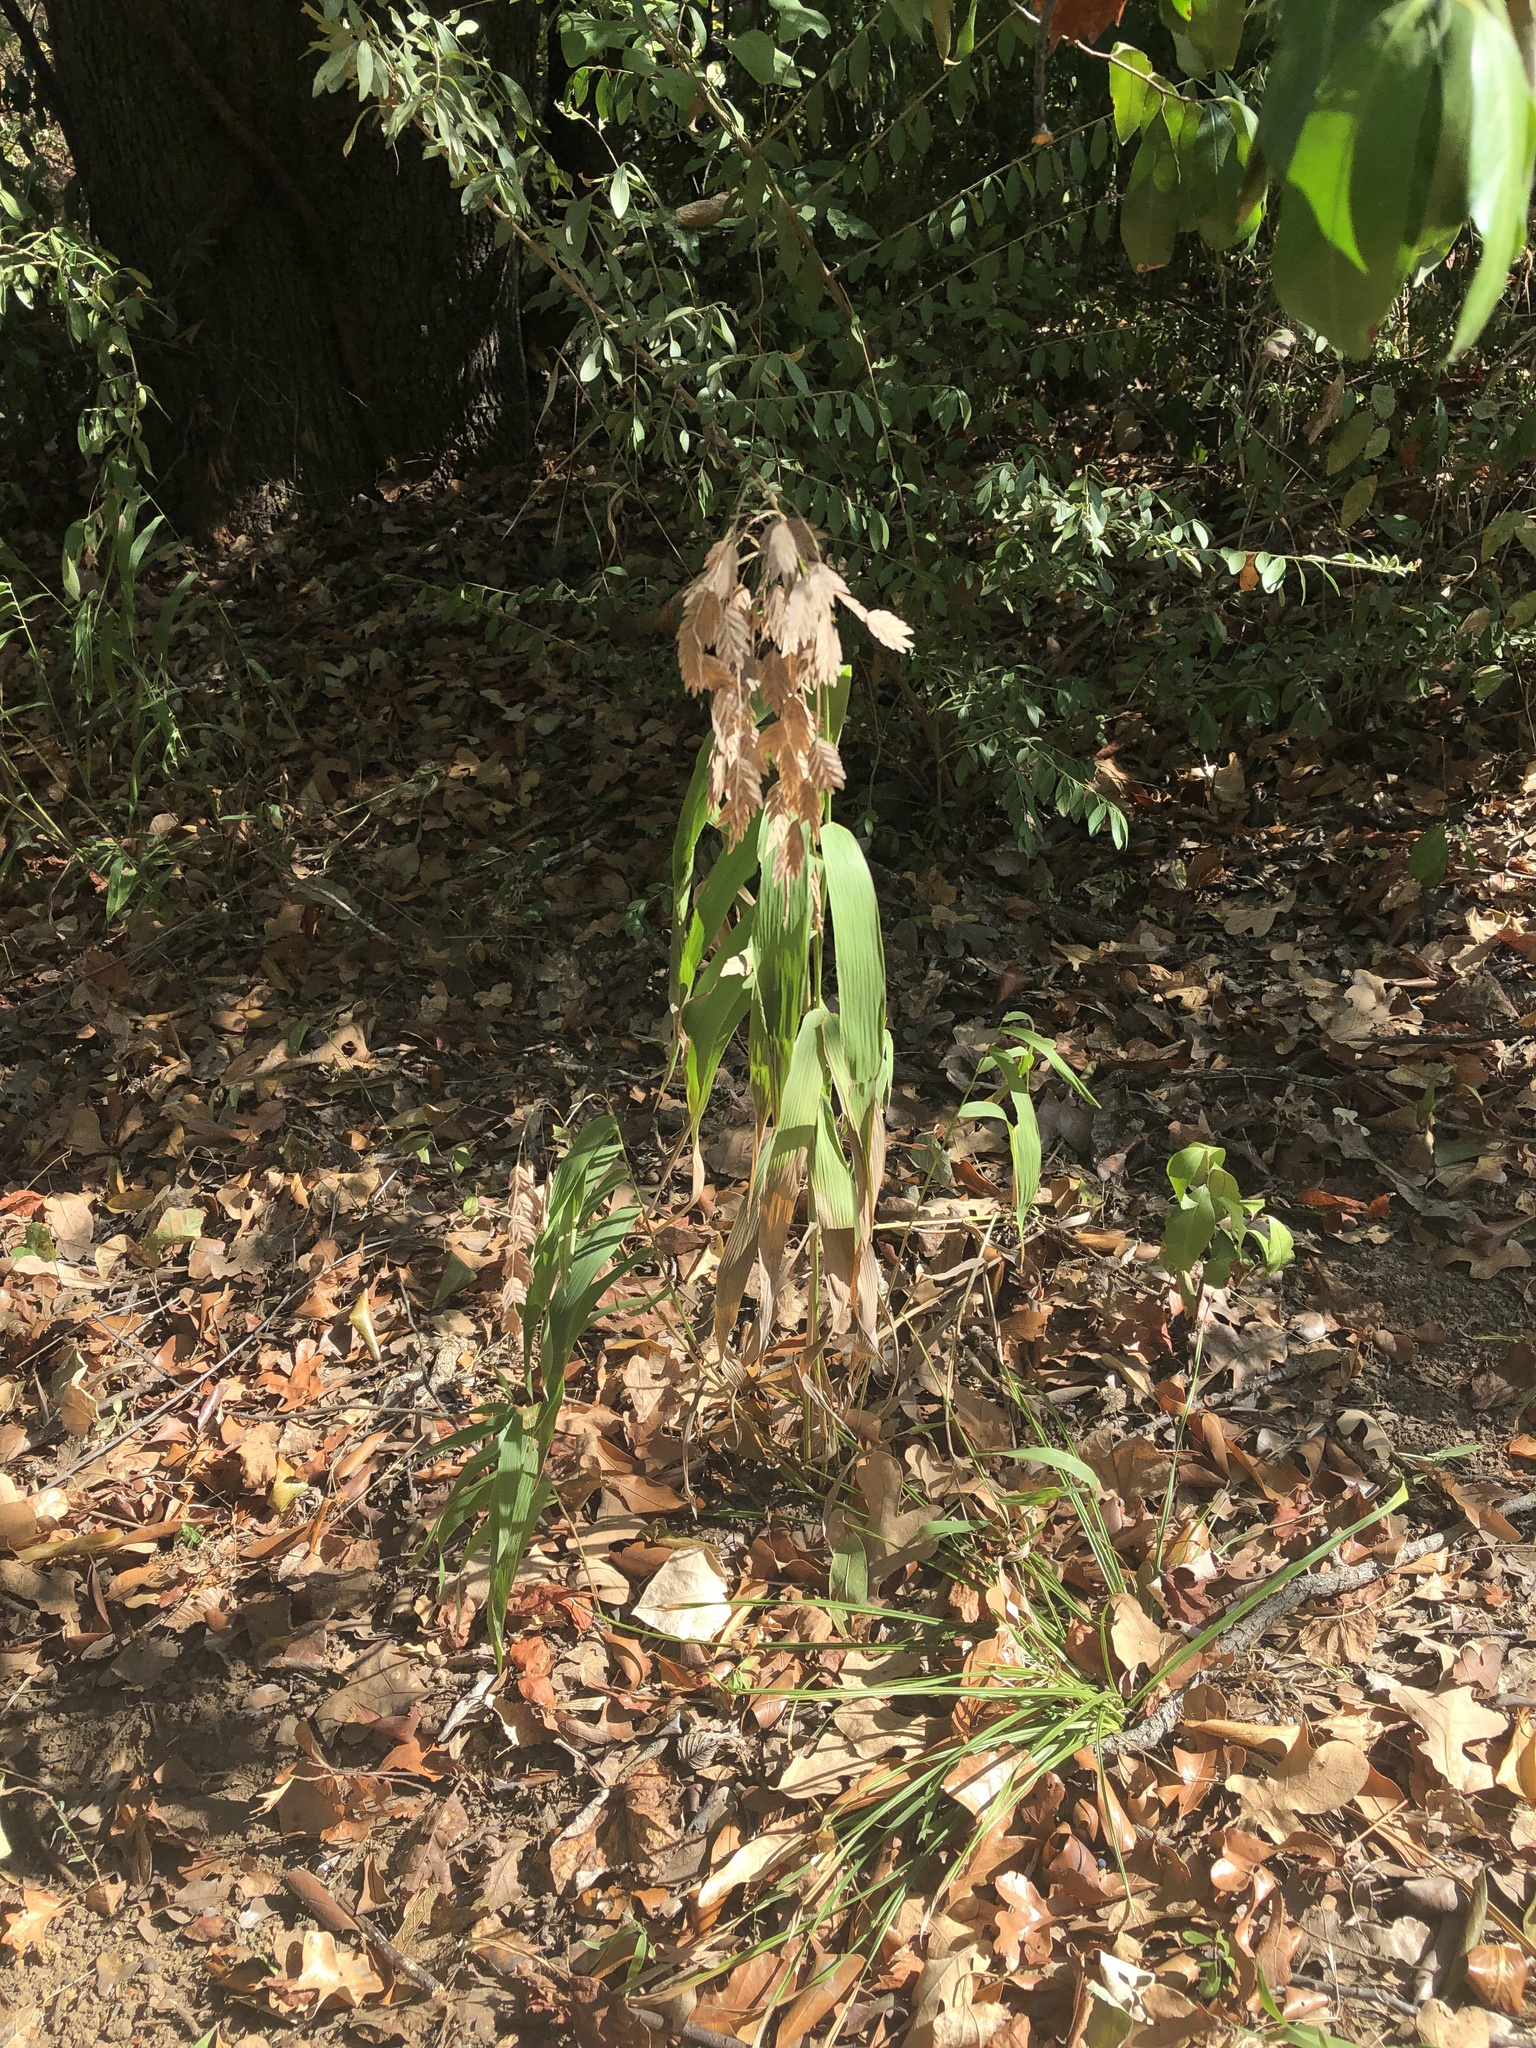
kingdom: Plantae
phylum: Tracheophyta
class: Liliopsida
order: Poales
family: Poaceae
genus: Chasmanthium
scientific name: Chasmanthium latifolium
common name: Broad-leaved chasmanthium
